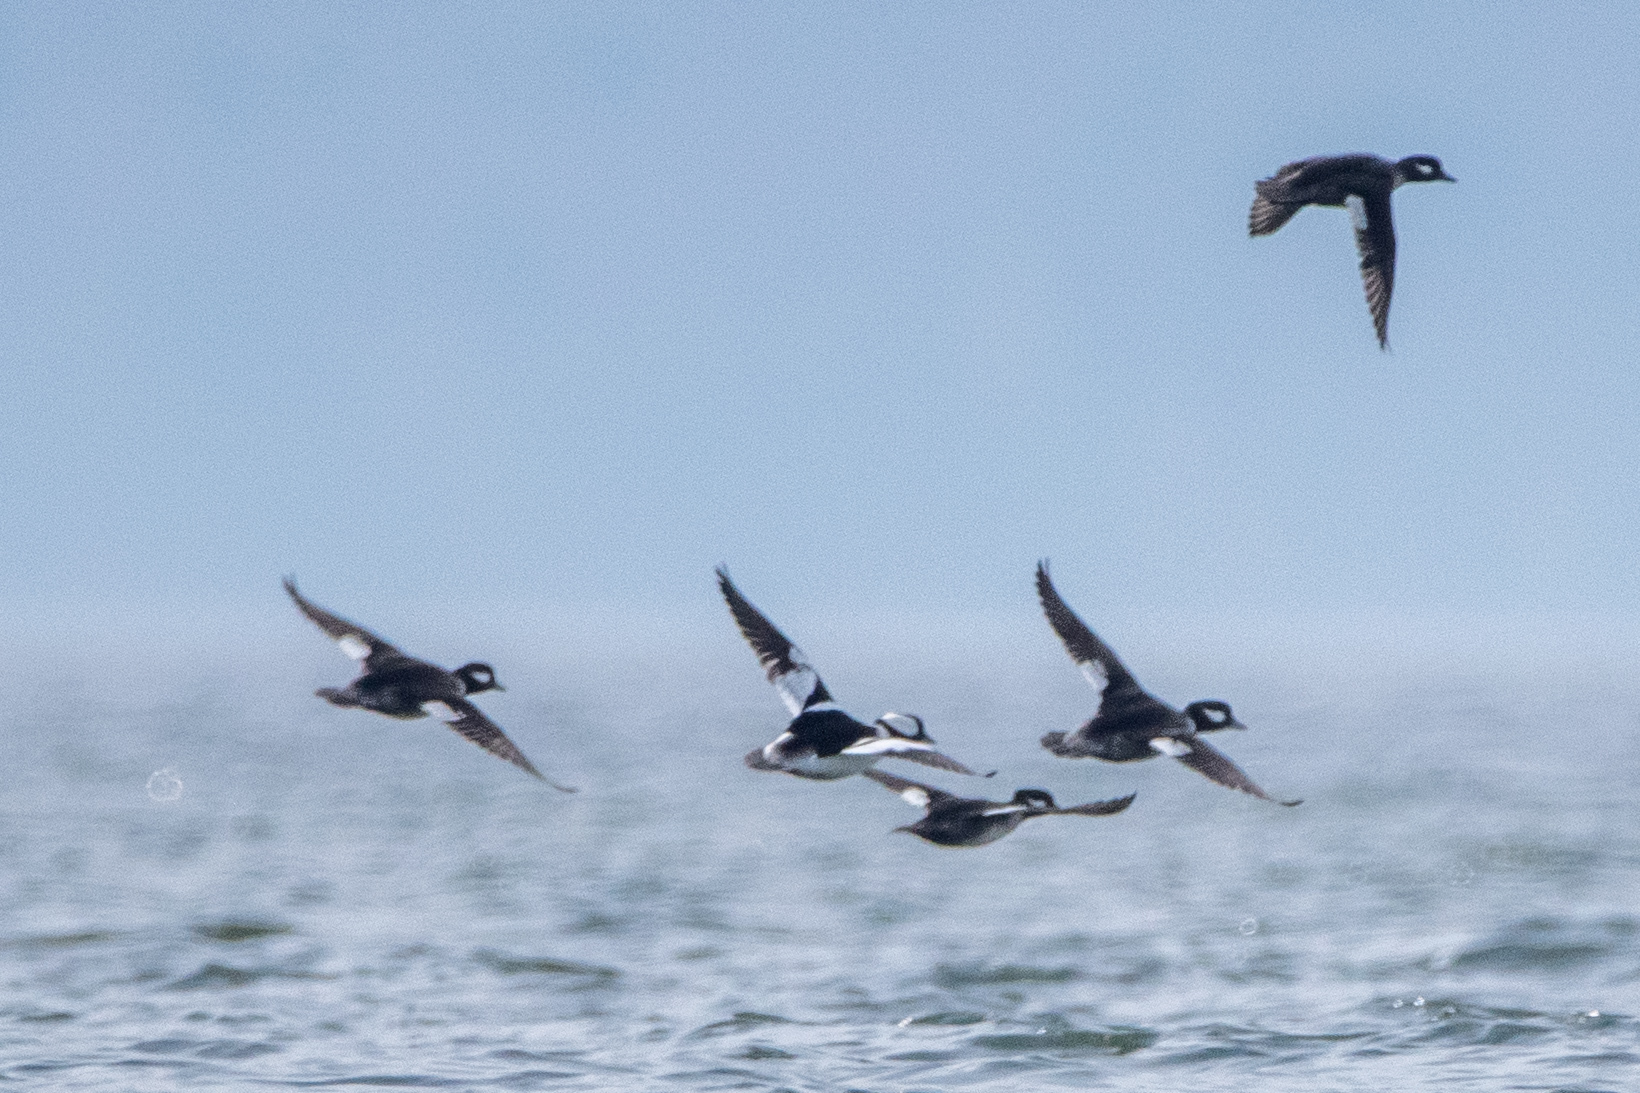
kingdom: Animalia
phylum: Chordata
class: Aves
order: Anseriformes
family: Anatidae
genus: Bucephala
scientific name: Bucephala albeola
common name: Bufflehead
